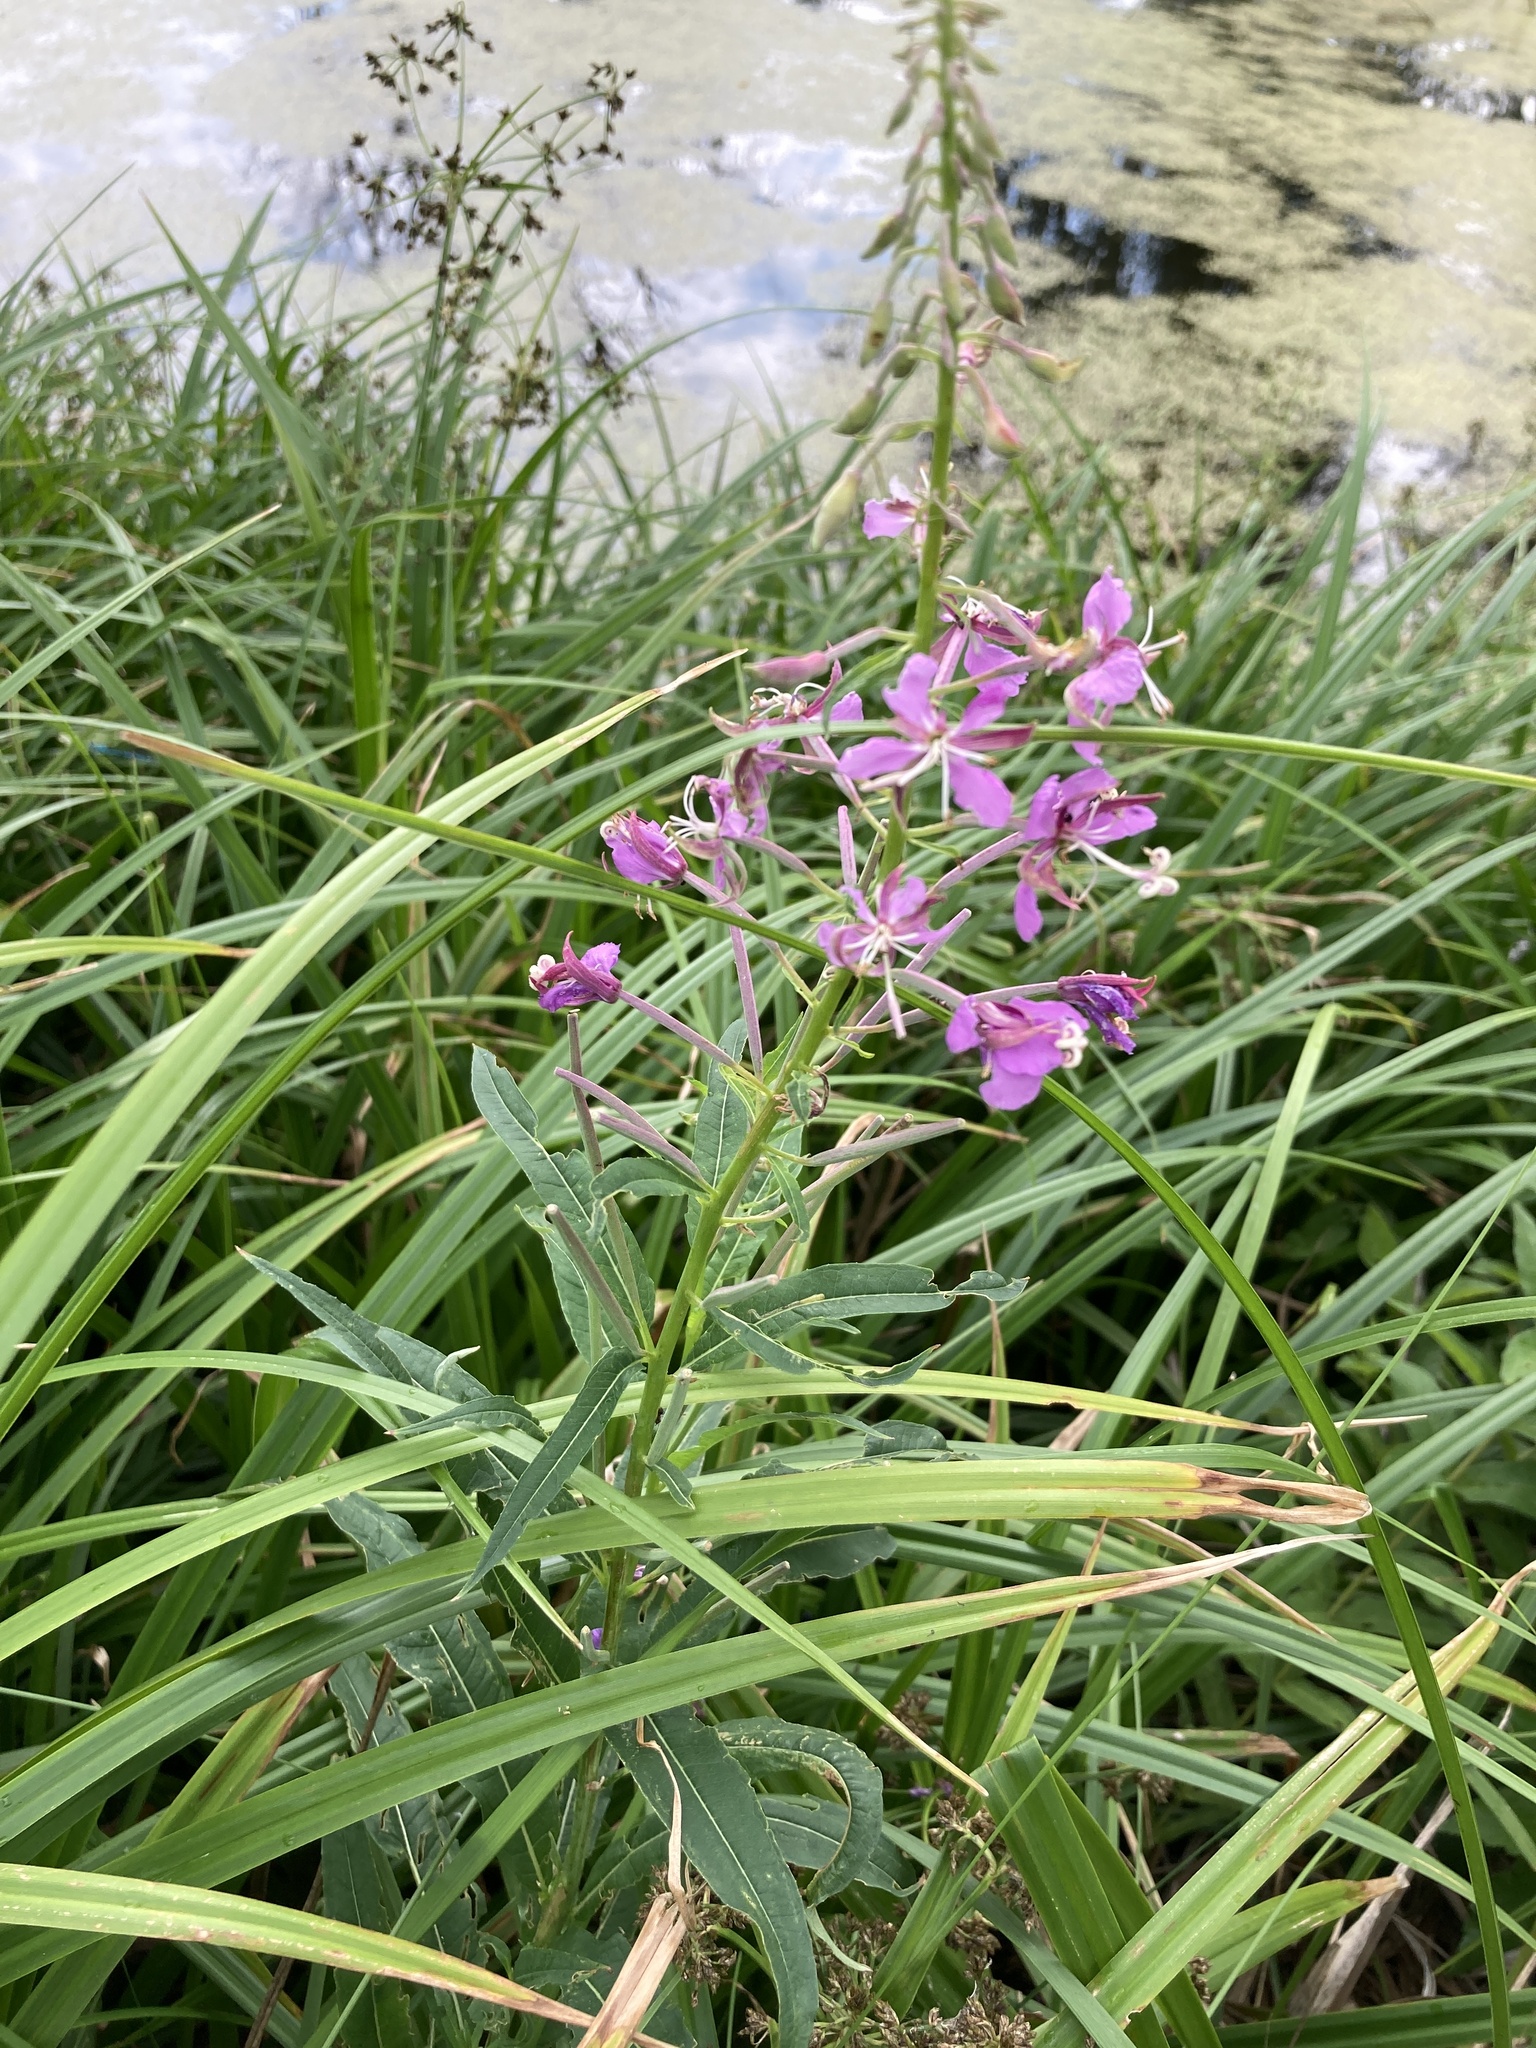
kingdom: Plantae
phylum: Tracheophyta
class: Magnoliopsida
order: Myrtales
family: Onagraceae
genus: Chamaenerion
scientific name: Chamaenerion angustifolium
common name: Fireweed
